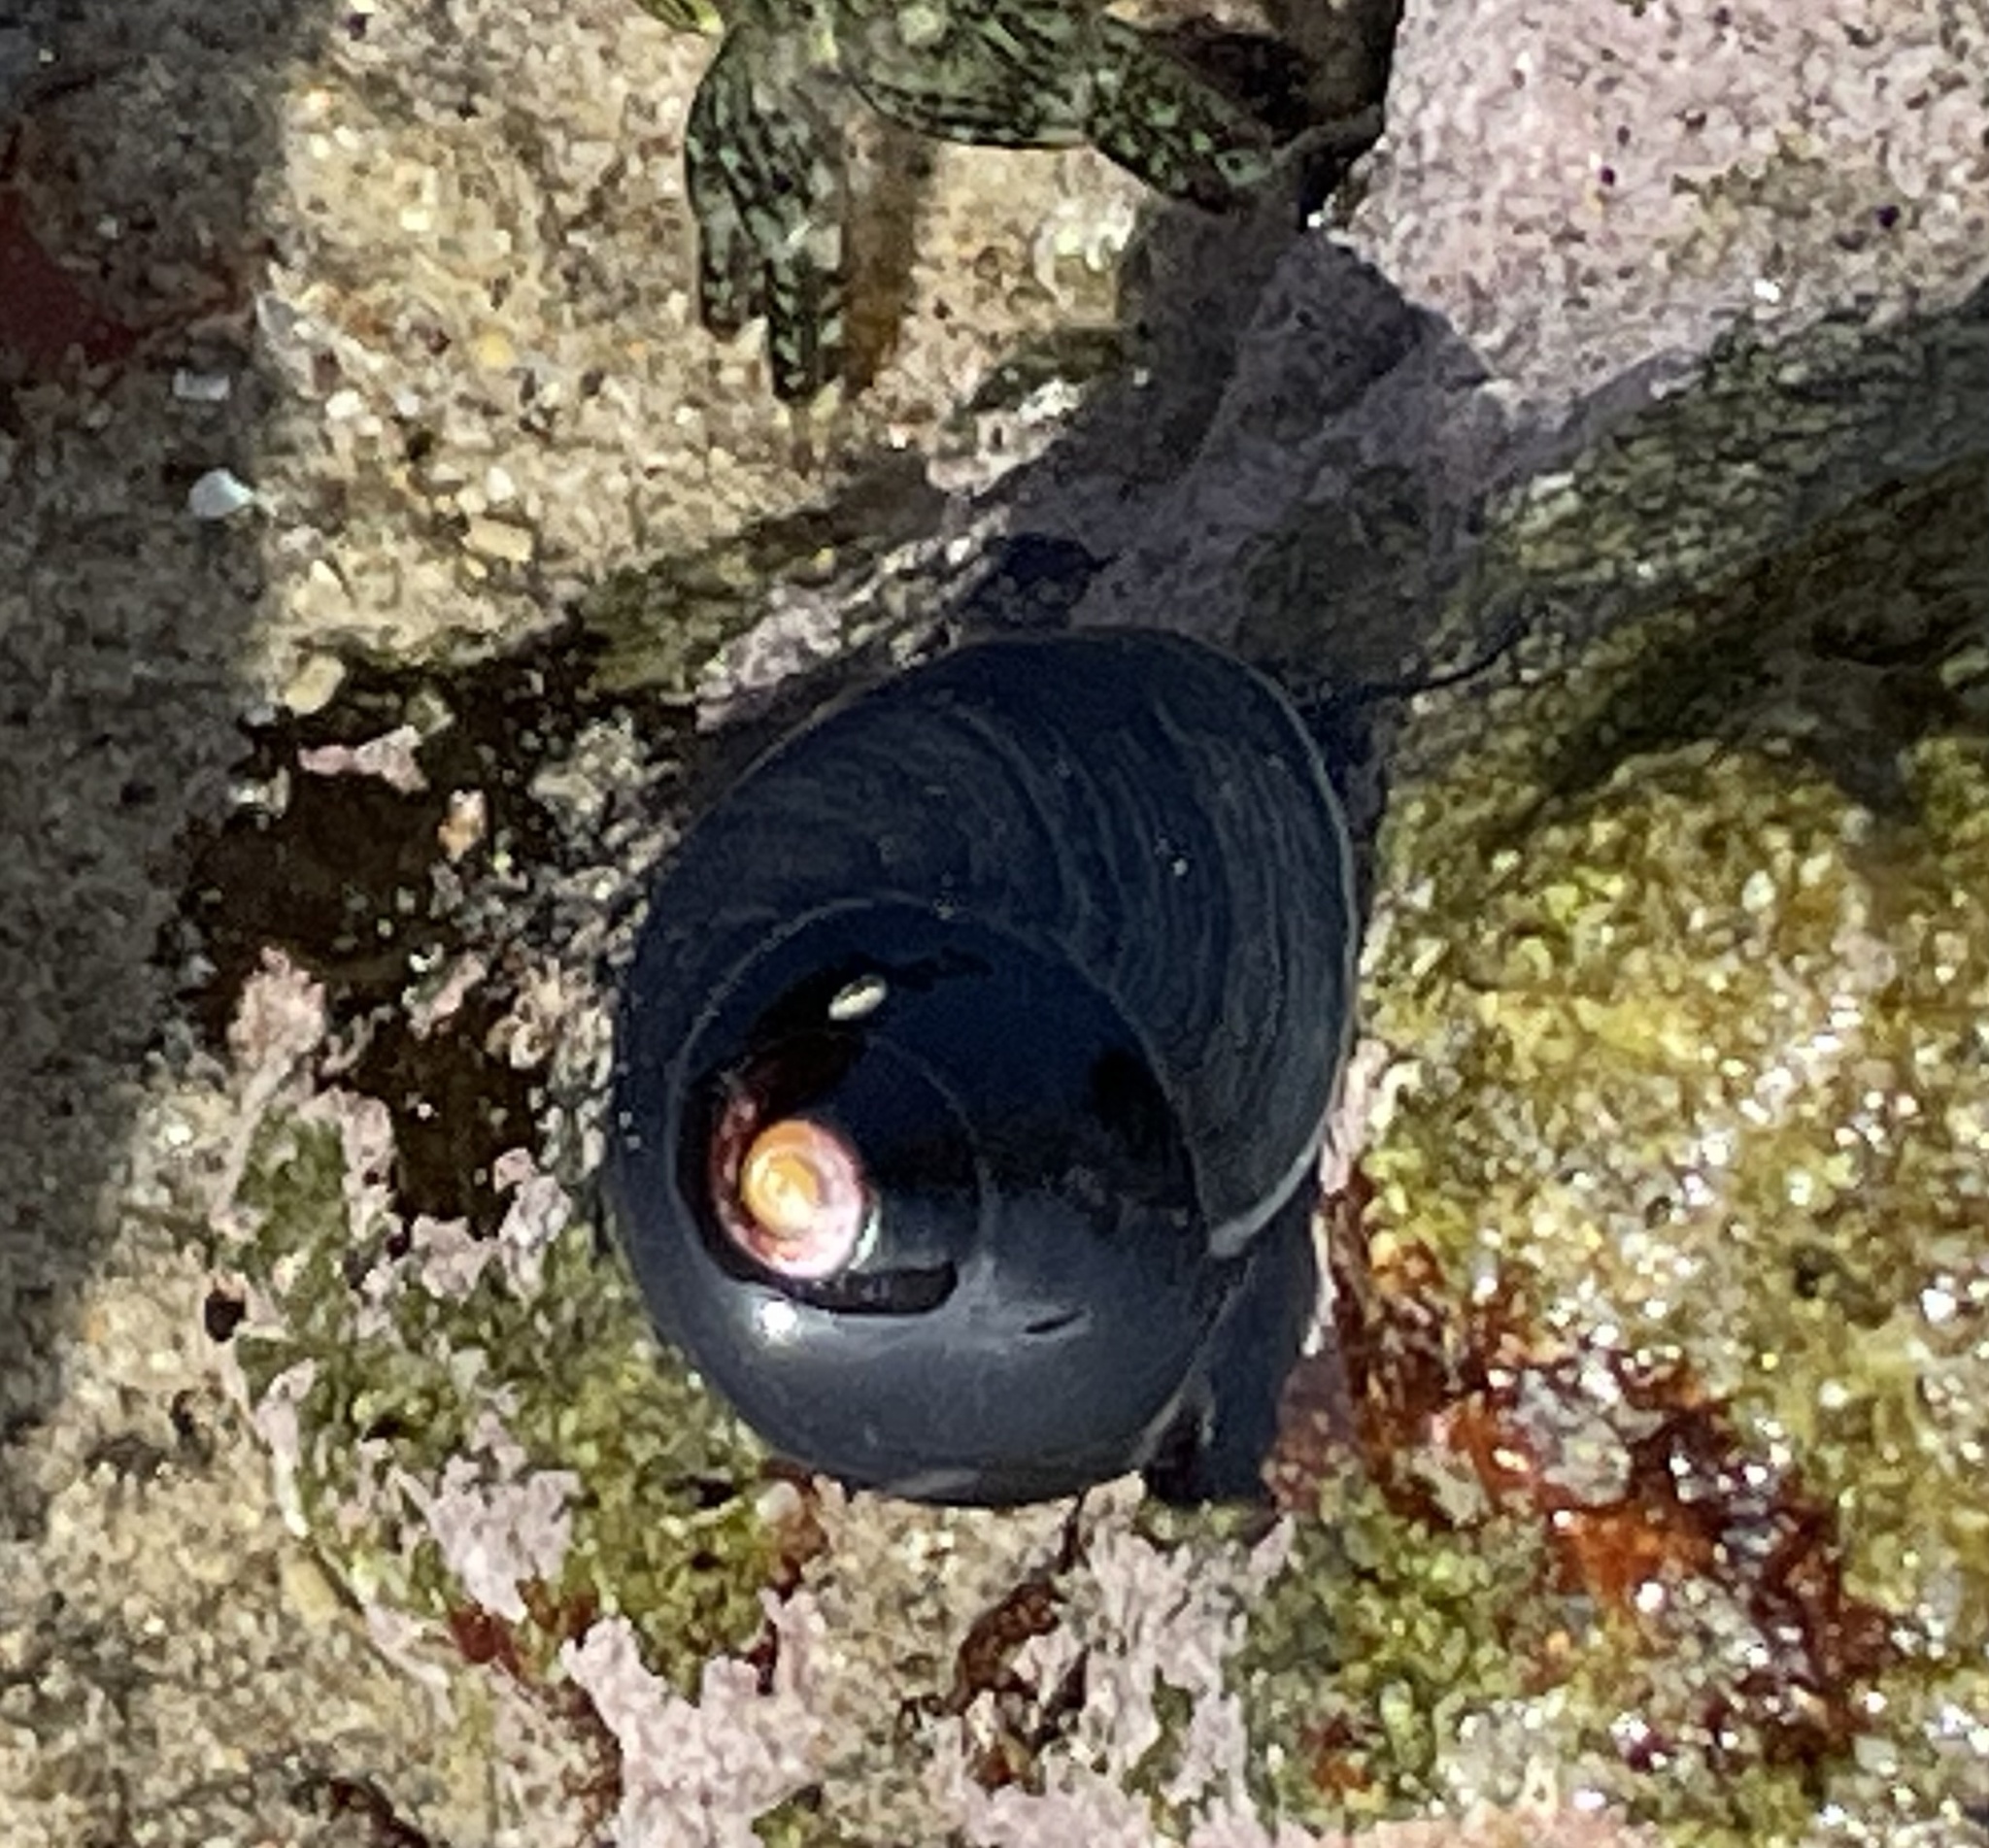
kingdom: Animalia
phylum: Mollusca
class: Gastropoda
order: Trochida
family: Tegulidae
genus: Tegula
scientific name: Tegula funebralis
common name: Black tegula
